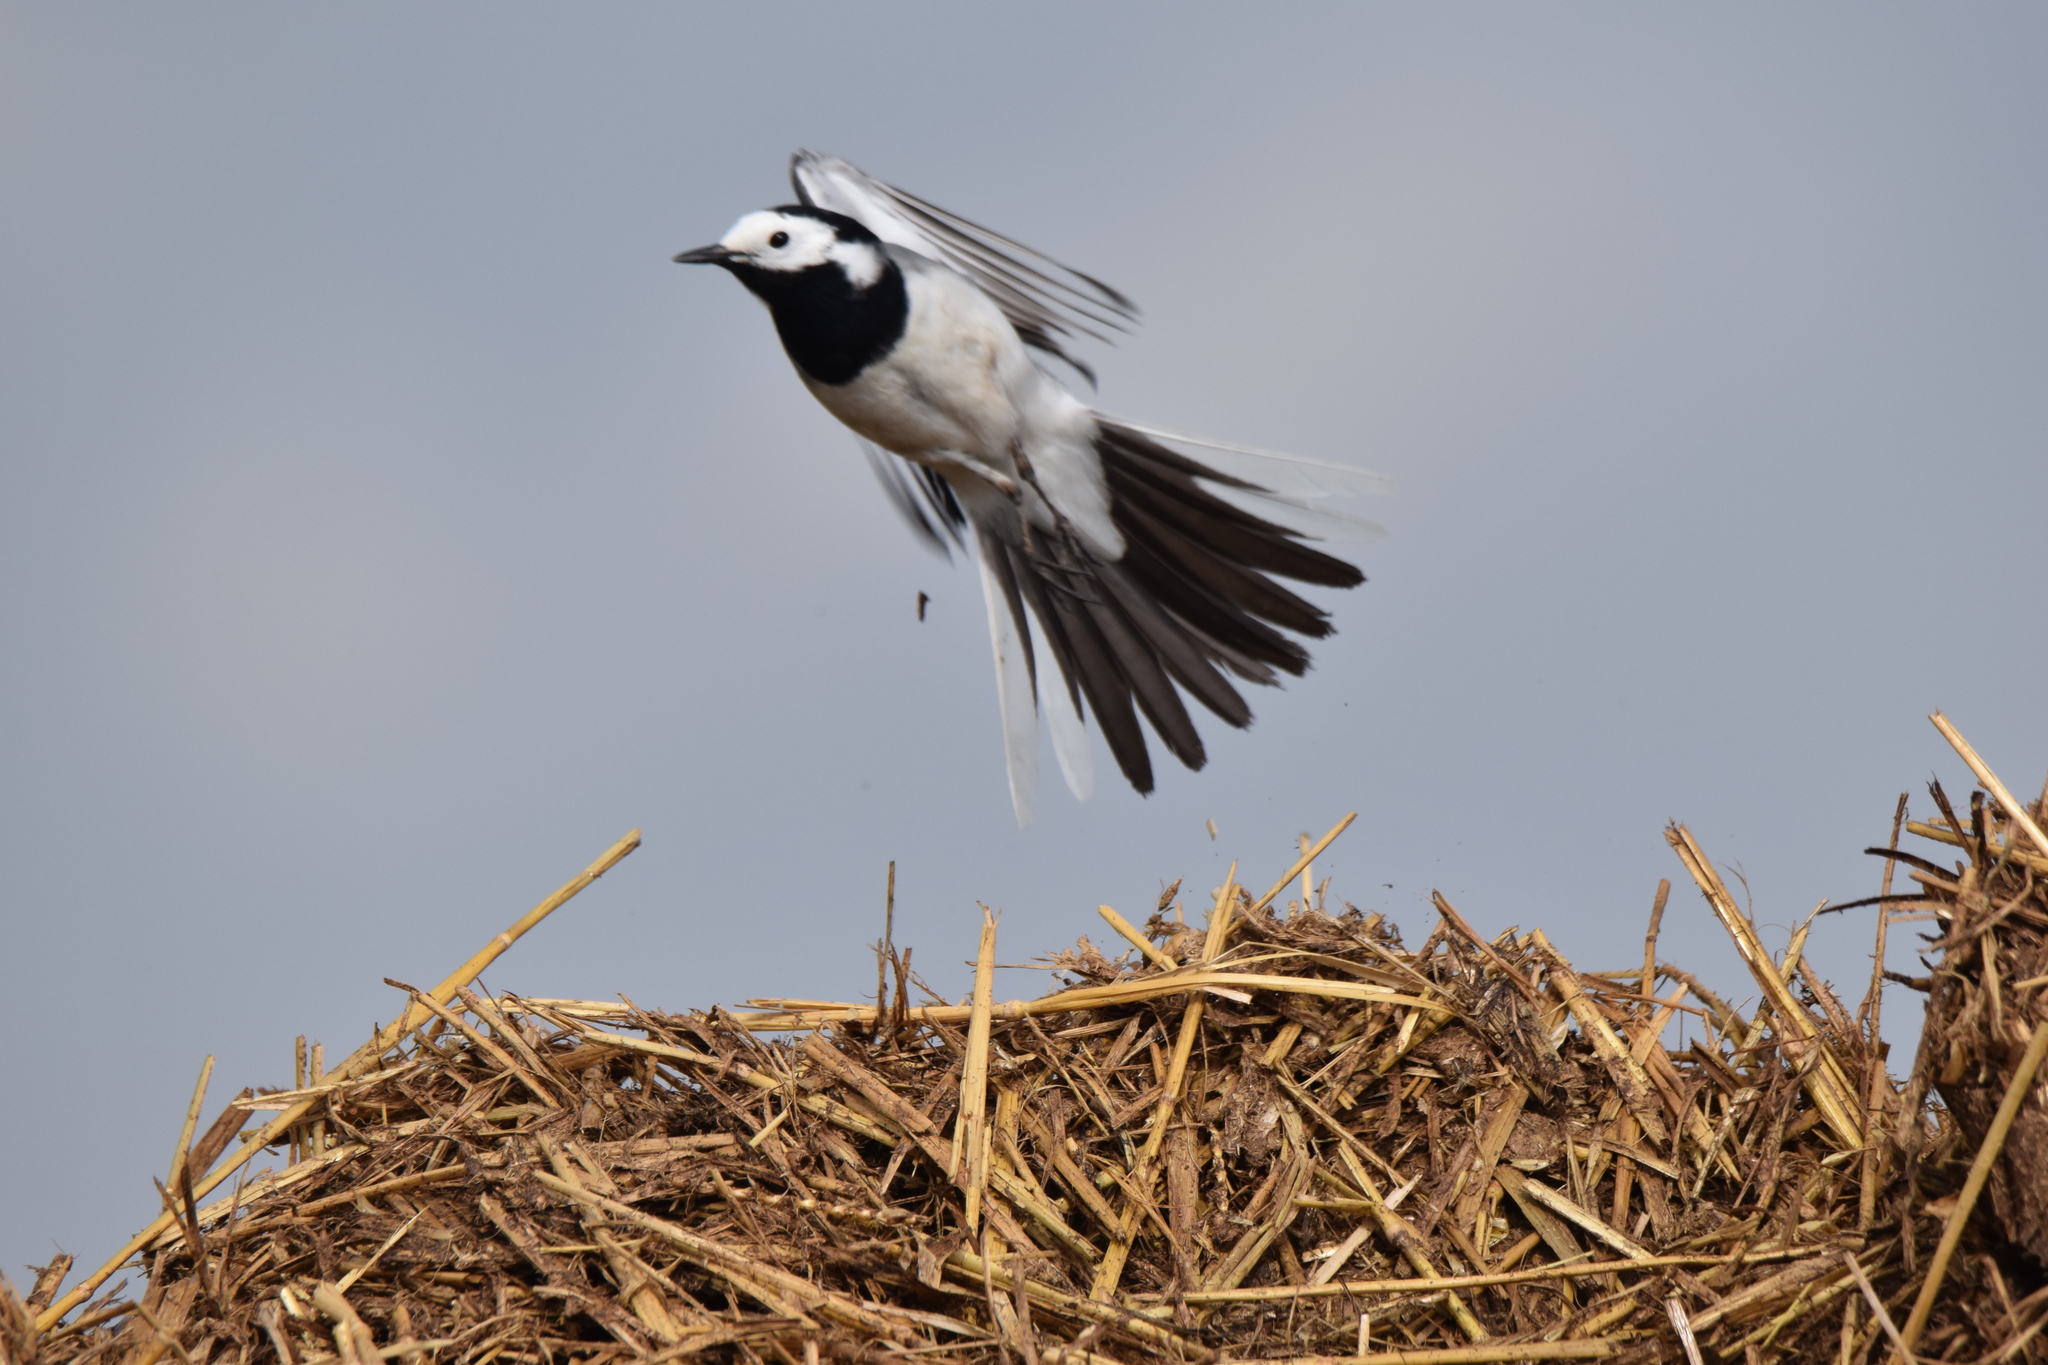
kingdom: Animalia
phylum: Chordata
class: Aves
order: Passeriformes
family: Motacillidae
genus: Motacilla
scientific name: Motacilla alba
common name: White wagtail
